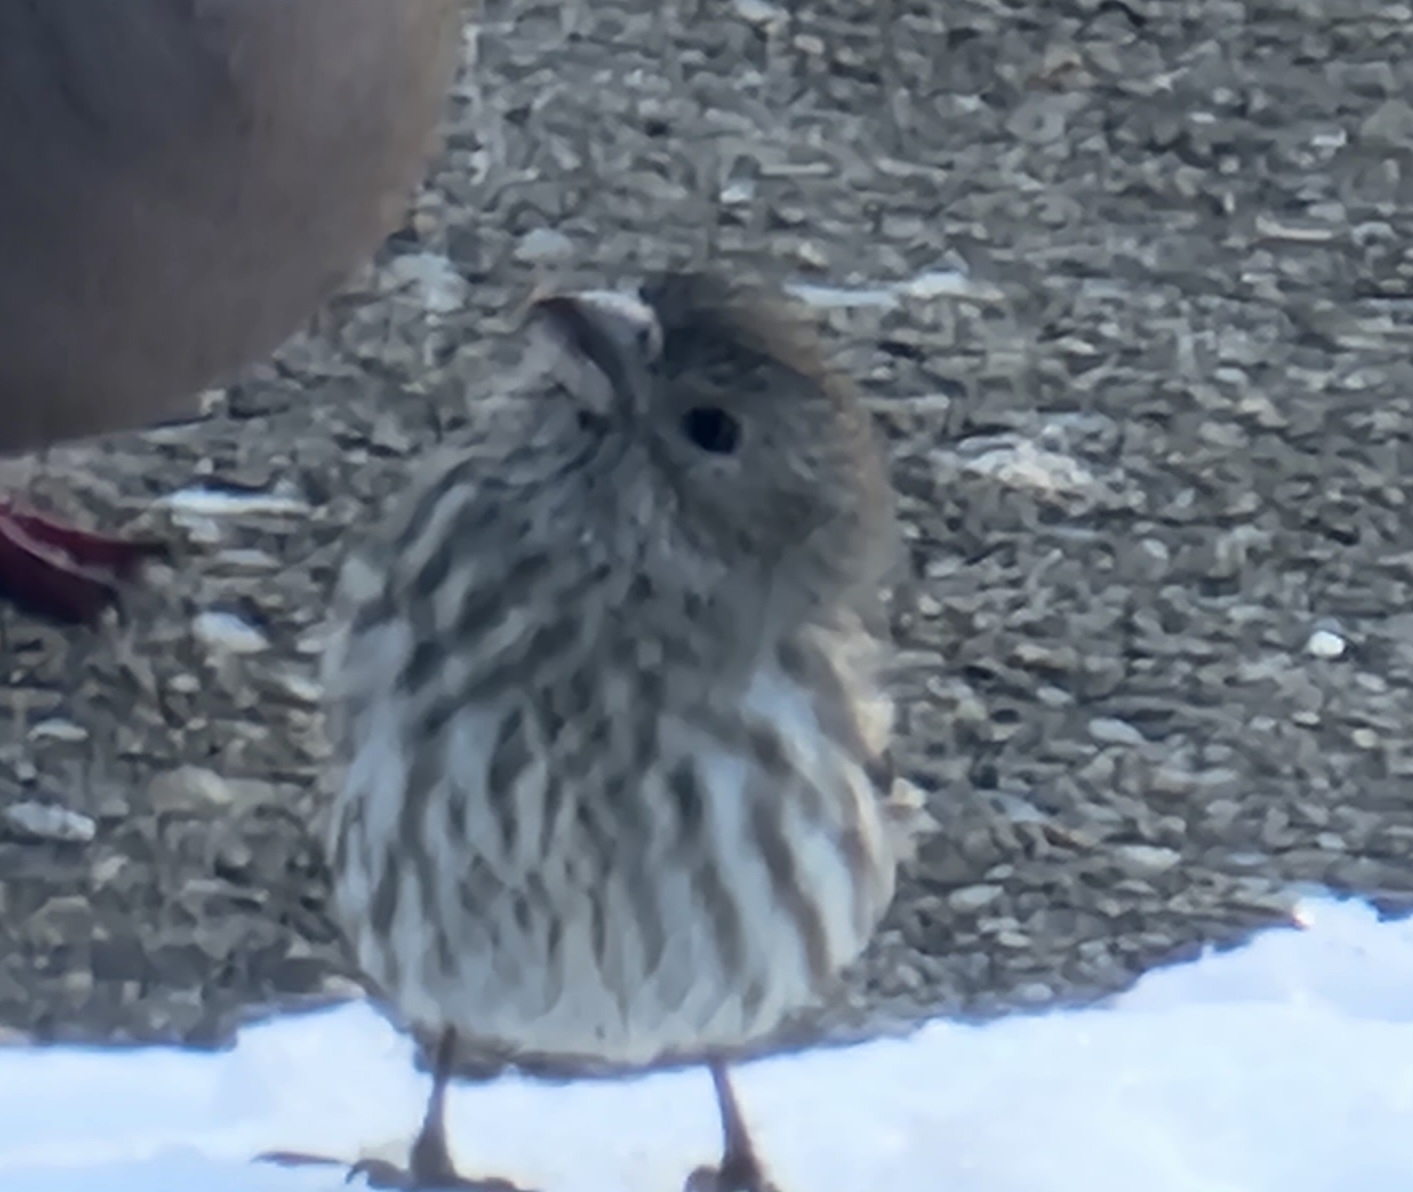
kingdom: Animalia
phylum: Chordata
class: Aves
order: Passeriformes
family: Fringillidae
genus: Haemorhous
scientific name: Haemorhous mexicanus
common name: House finch
